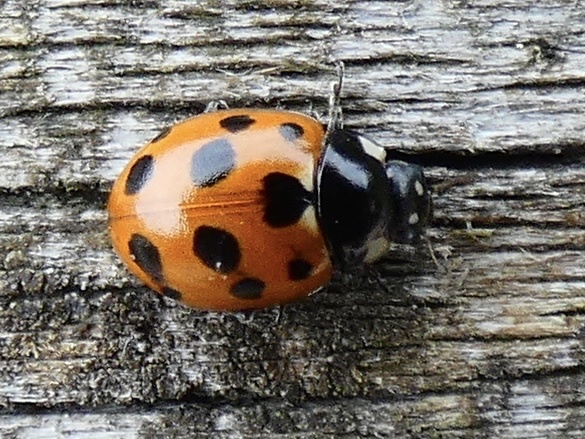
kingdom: Animalia
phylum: Arthropoda
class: Insecta
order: Coleoptera
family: Coccinellidae
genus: Coccinella
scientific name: Coccinella undecimpunctata
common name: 11-spot ladybird
